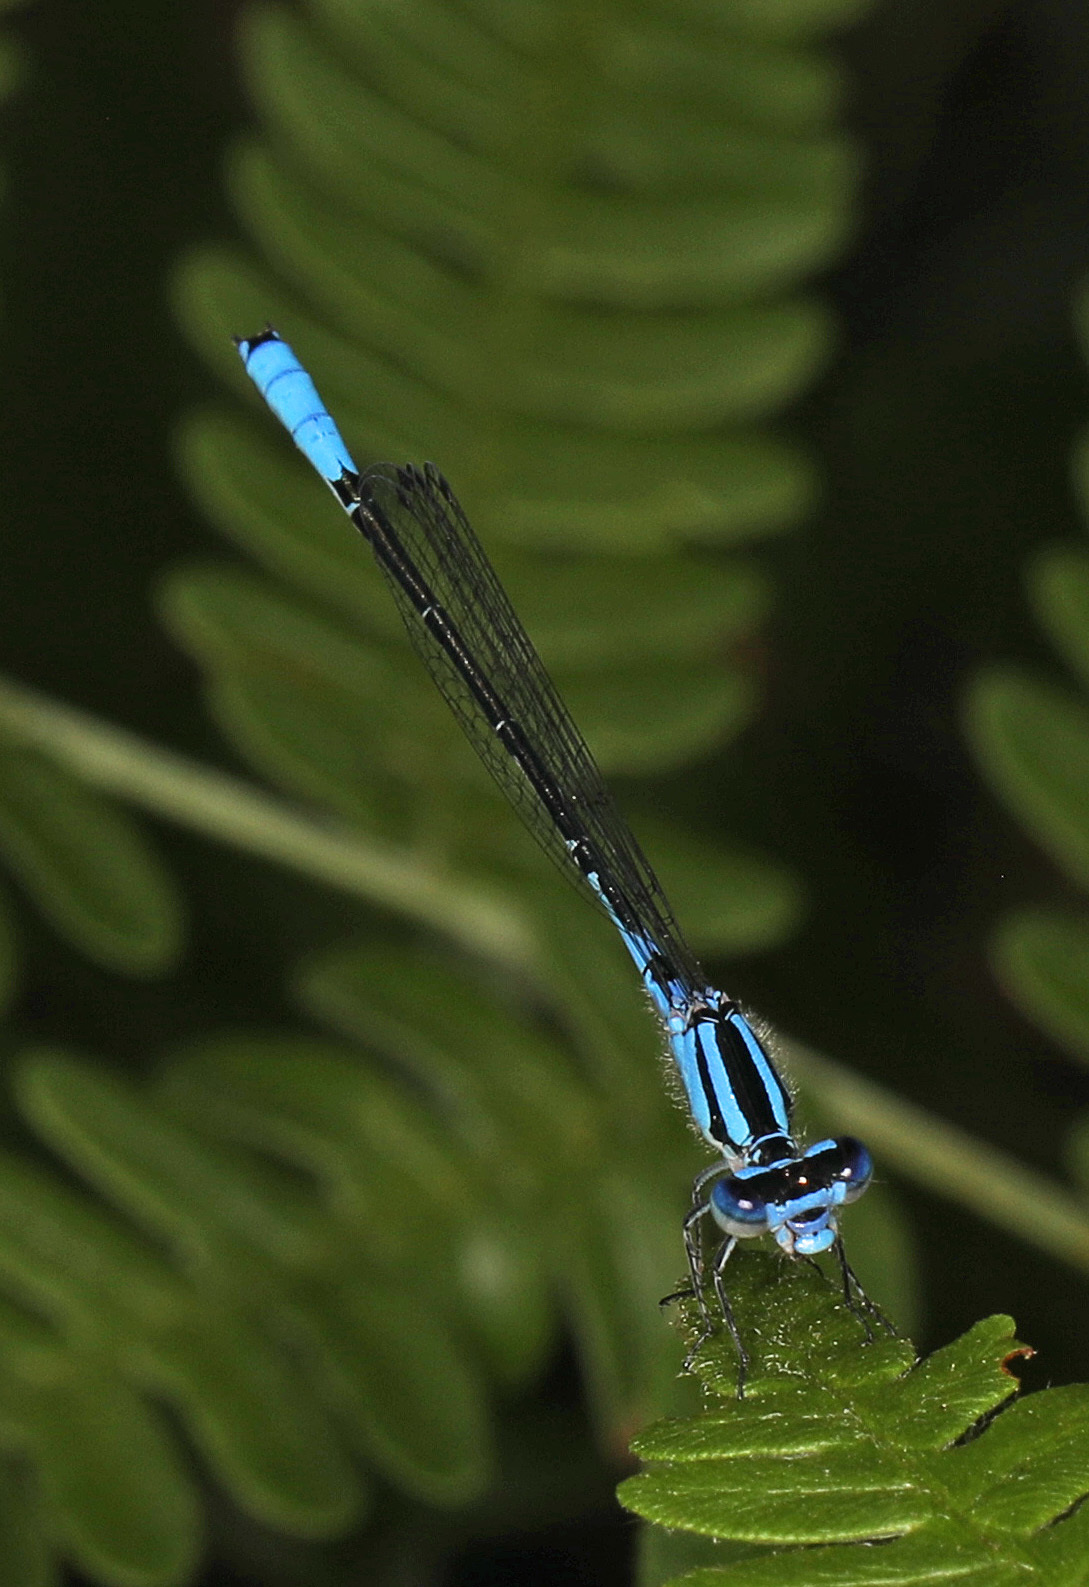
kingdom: Animalia
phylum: Arthropoda
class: Insecta
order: Odonata
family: Coenagrionidae
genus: Enallagma
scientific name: Enallagma aspersum
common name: Azure bluet
